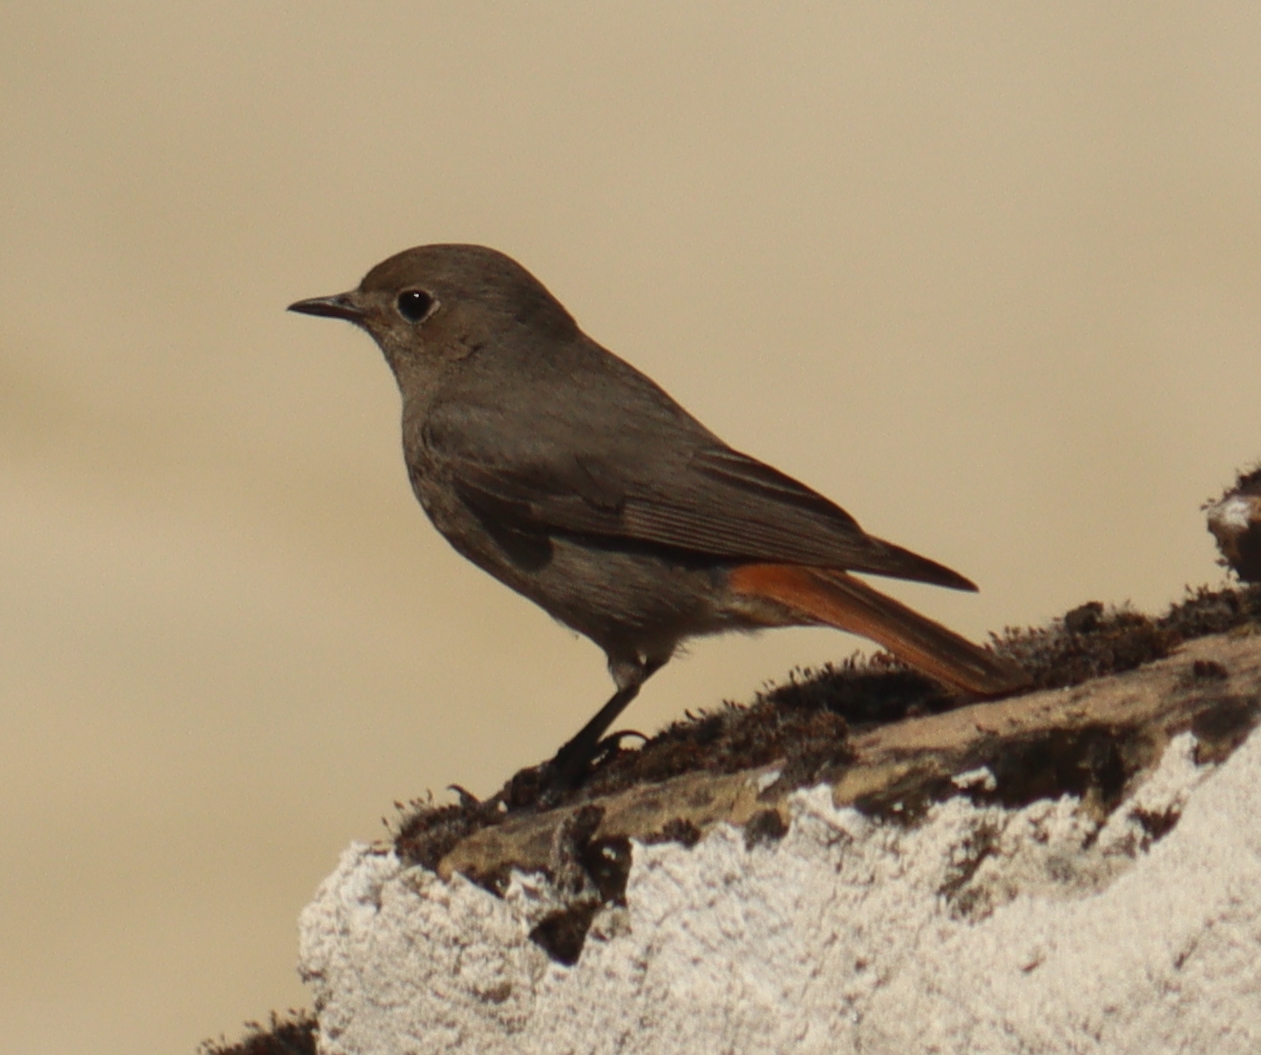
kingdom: Animalia
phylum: Chordata
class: Aves
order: Passeriformes
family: Muscicapidae
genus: Phoenicurus
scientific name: Phoenicurus ochruros
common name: Black redstart
